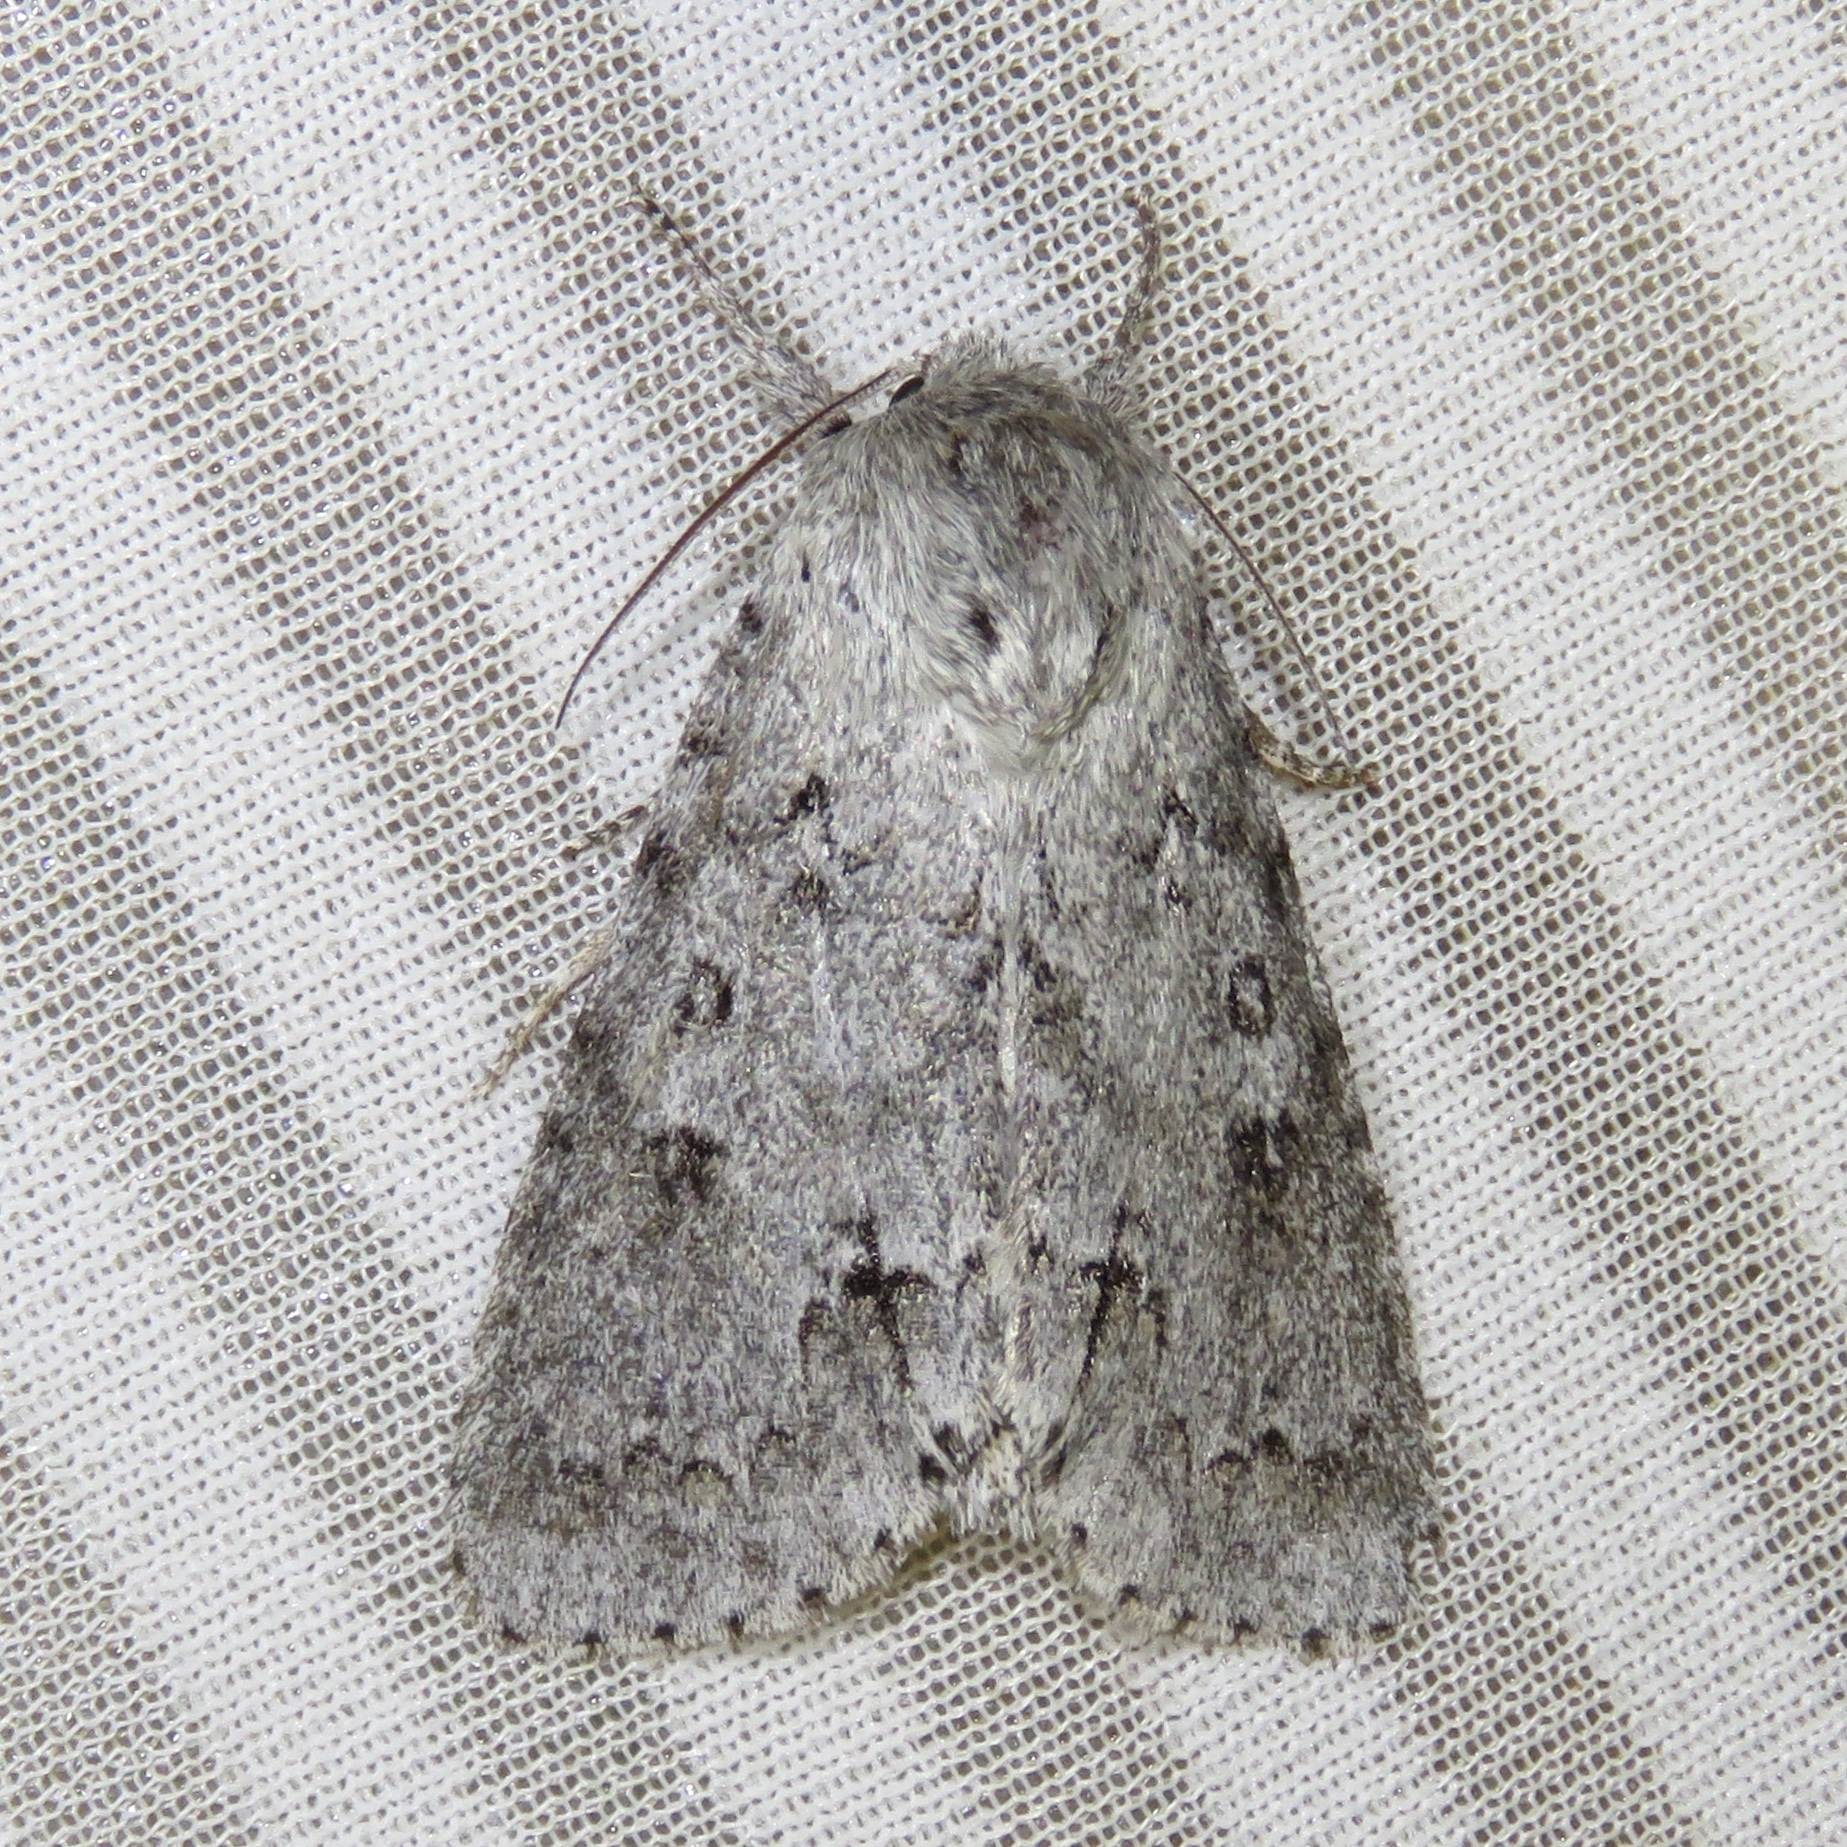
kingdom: Animalia
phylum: Arthropoda
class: Insecta
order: Lepidoptera
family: Noctuidae
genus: Acronicta
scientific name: Acronicta insita
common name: Large gray dagger
